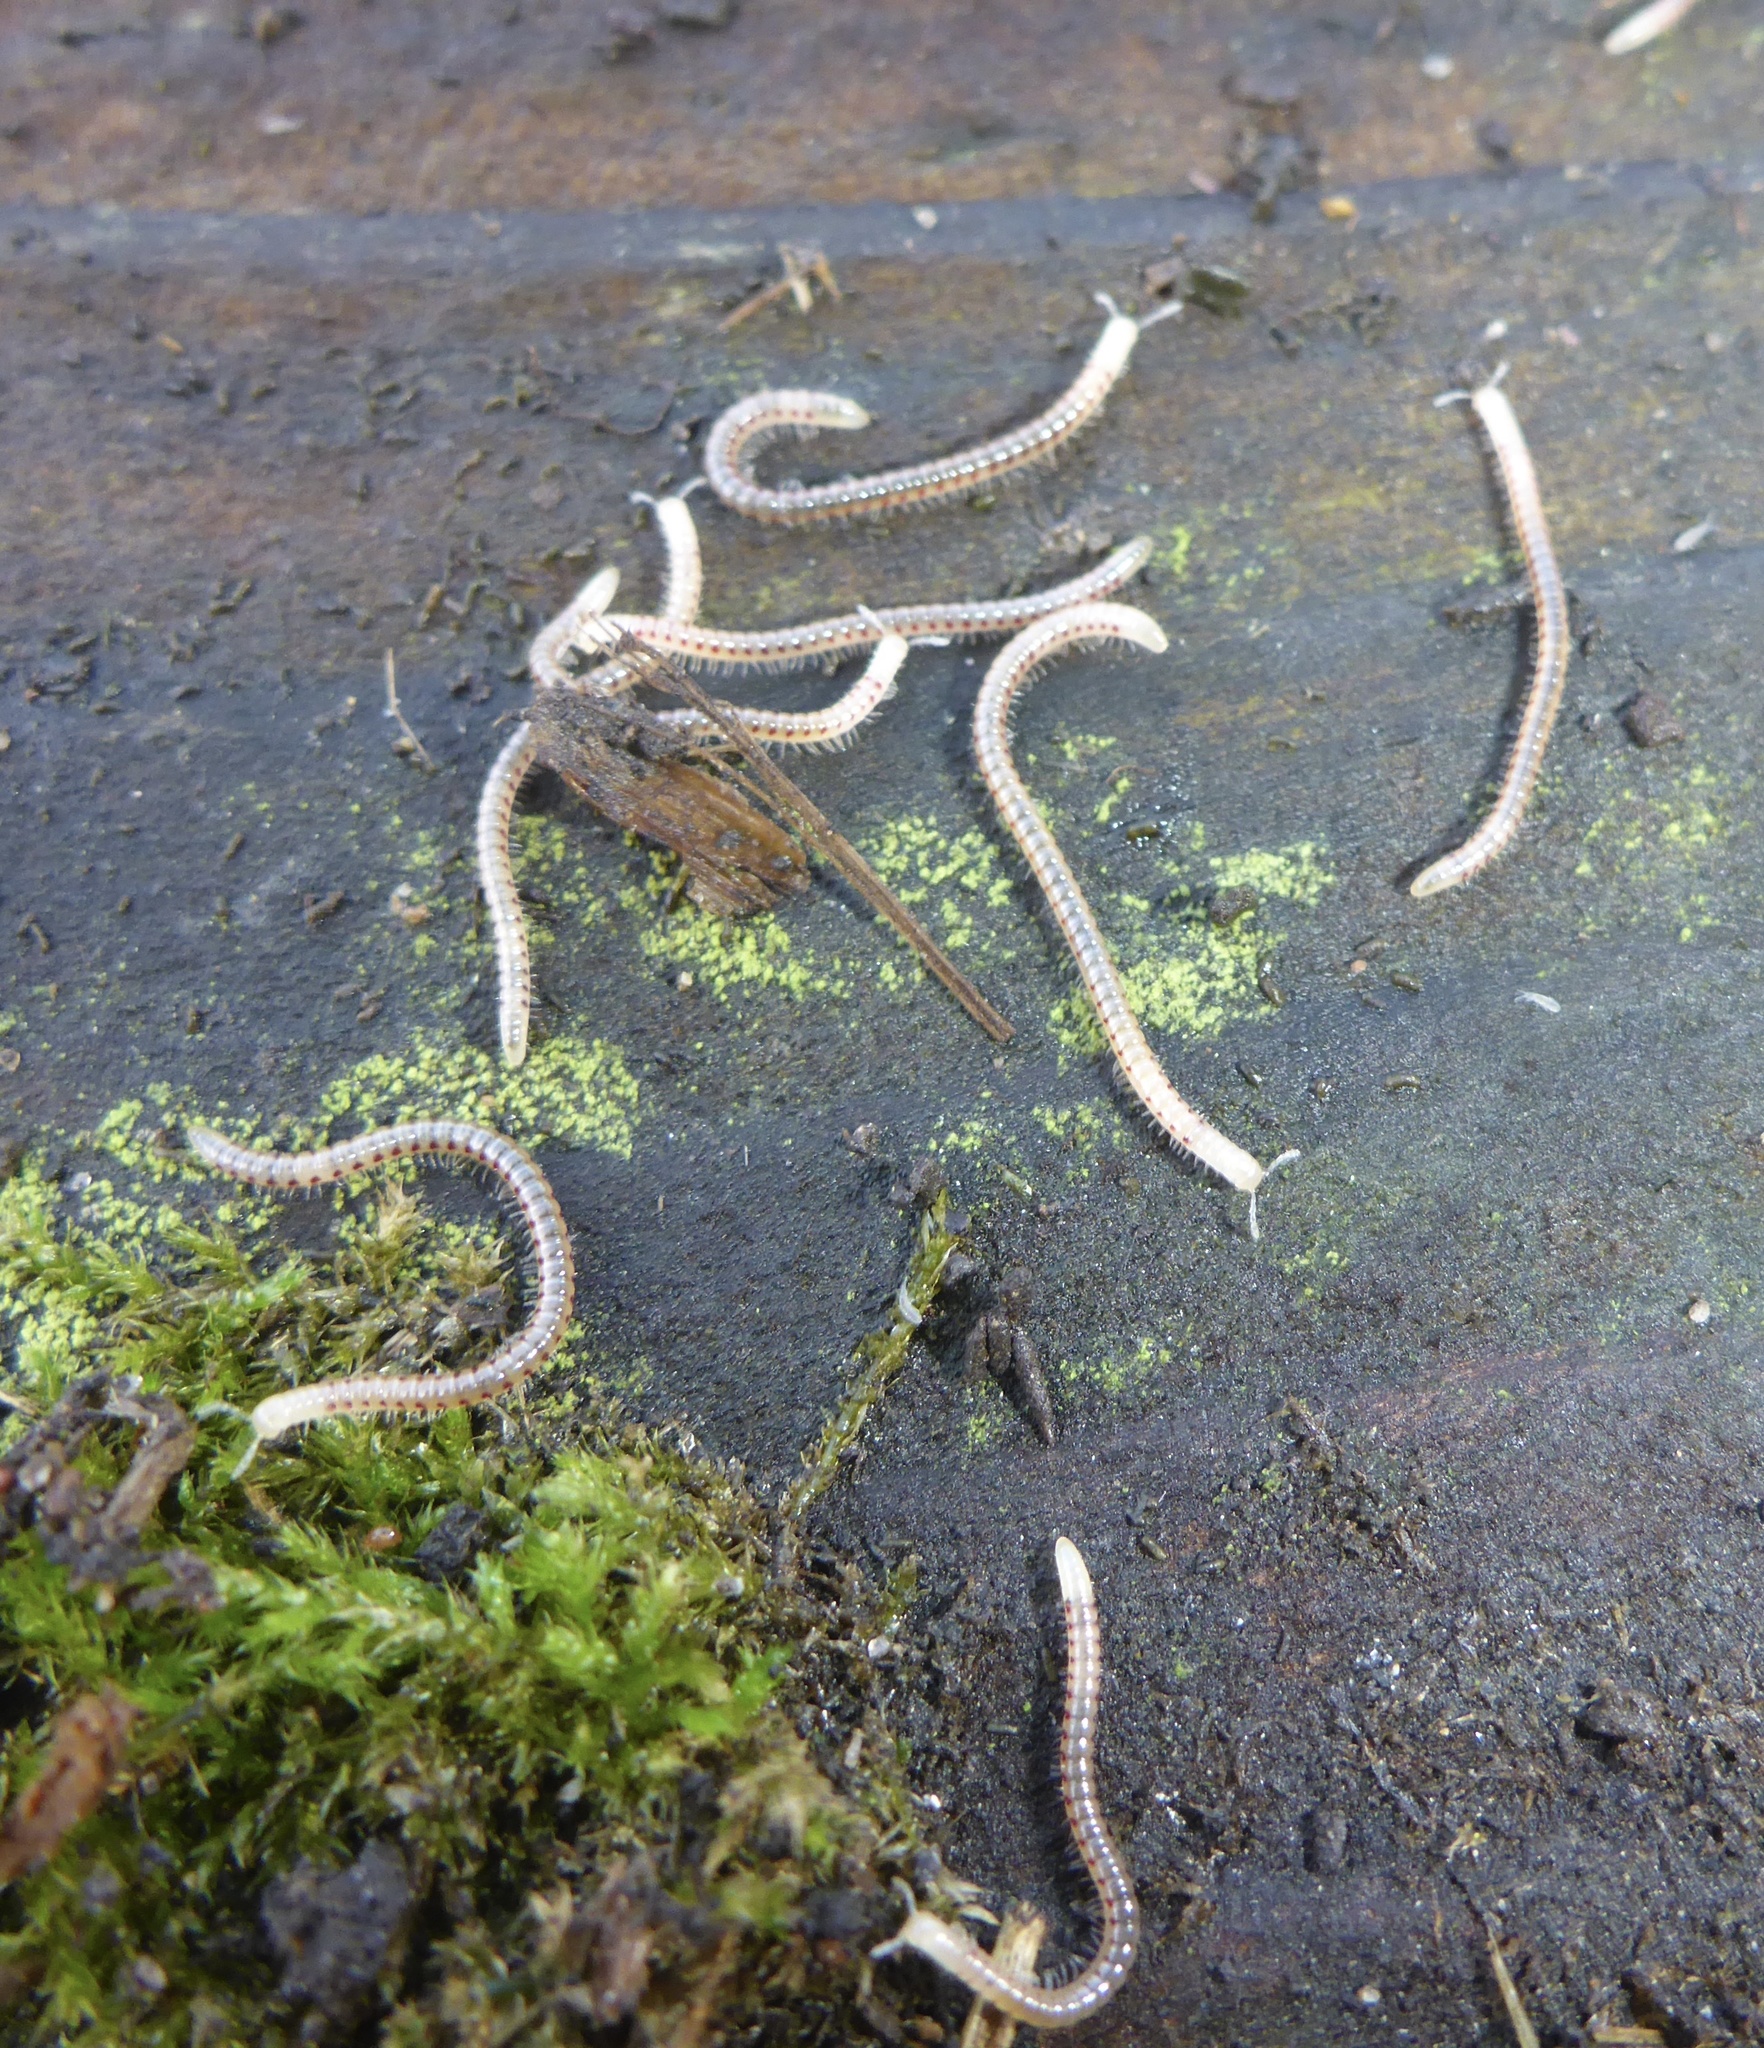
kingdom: Animalia
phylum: Arthropoda
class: Diplopoda
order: Julida
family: Blaniulidae
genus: Blaniulus
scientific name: Blaniulus guttulatus
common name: Spotted snake millipede
